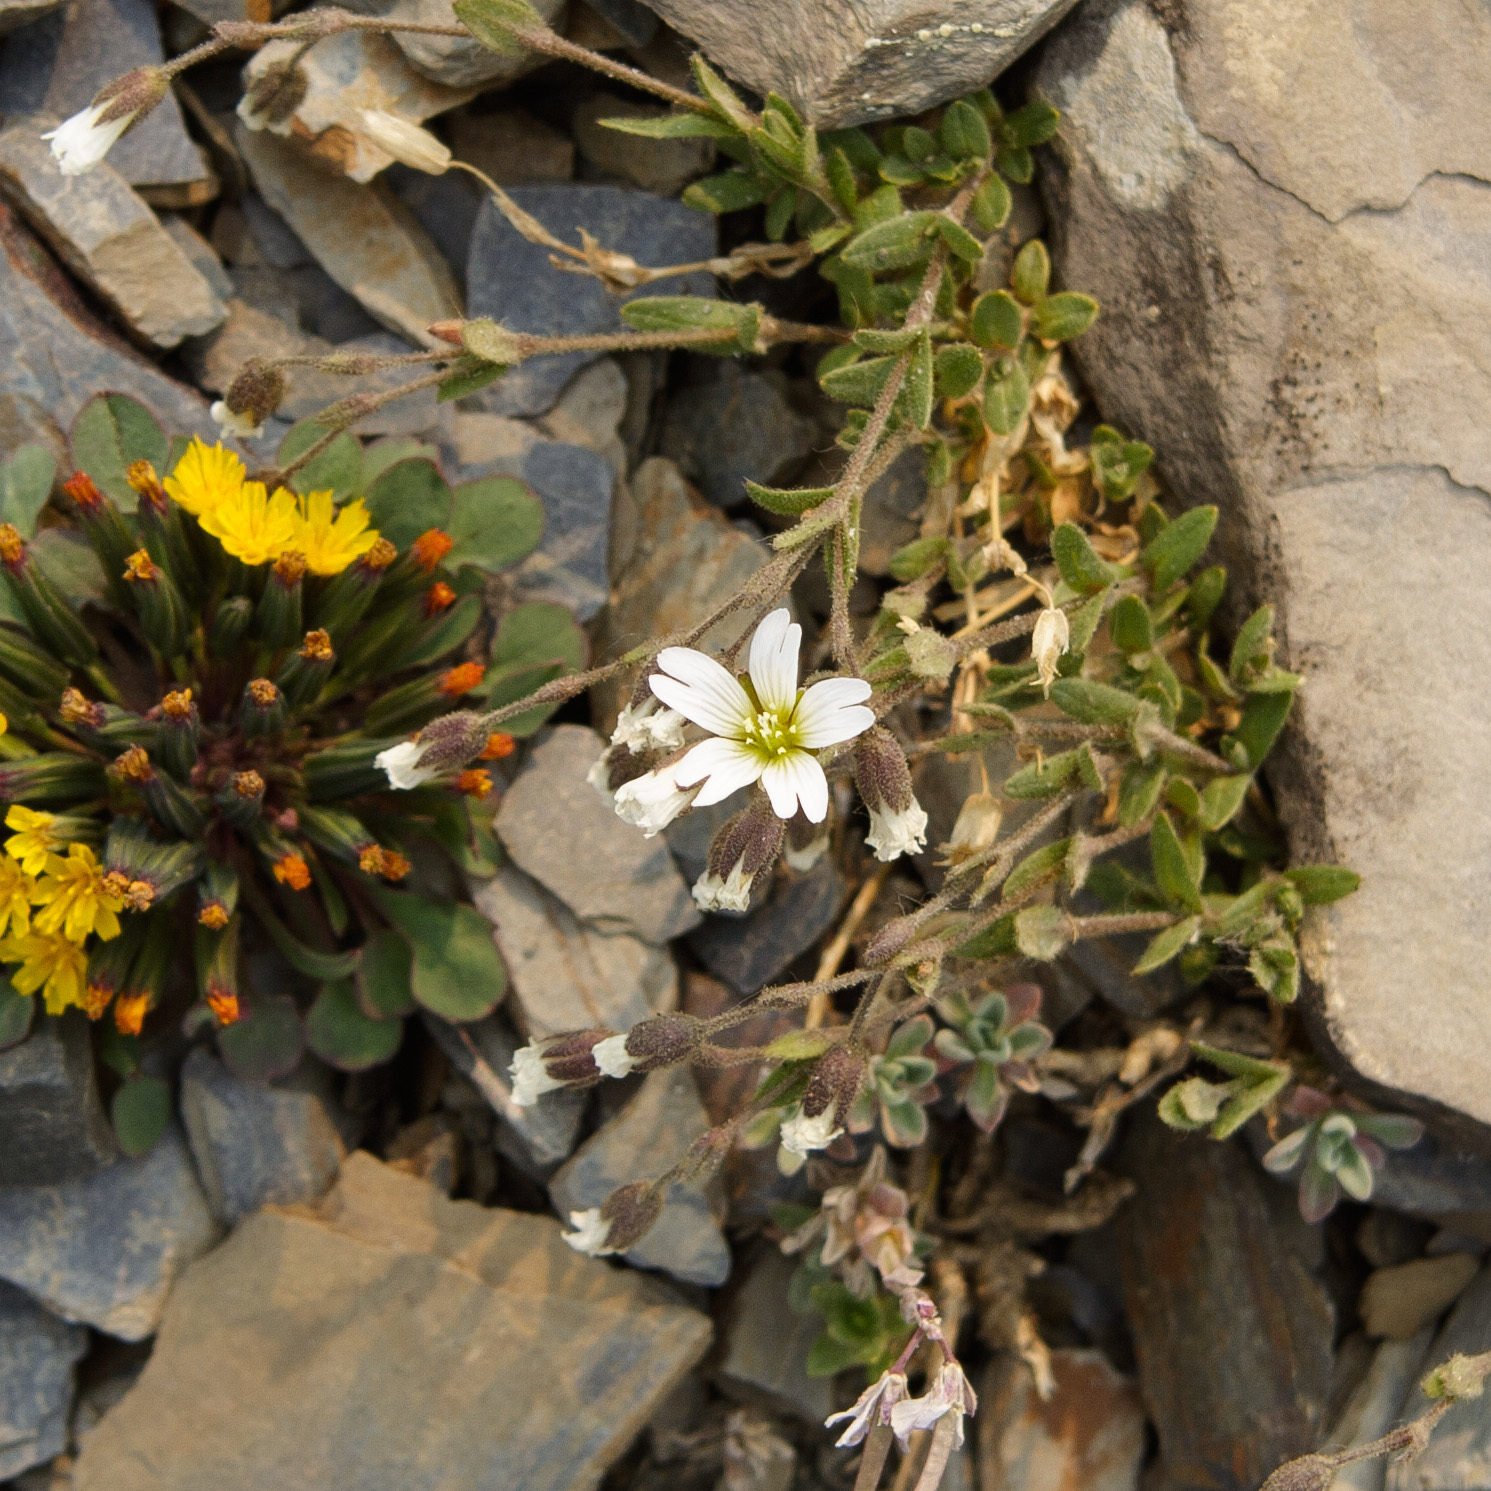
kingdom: Plantae
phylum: Tracheophyta
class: Magnoliopsida
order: Caryophyllales
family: Caryophyllaceae
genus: Cerastium
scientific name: Cerastium arvense
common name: Field mouse-ear
